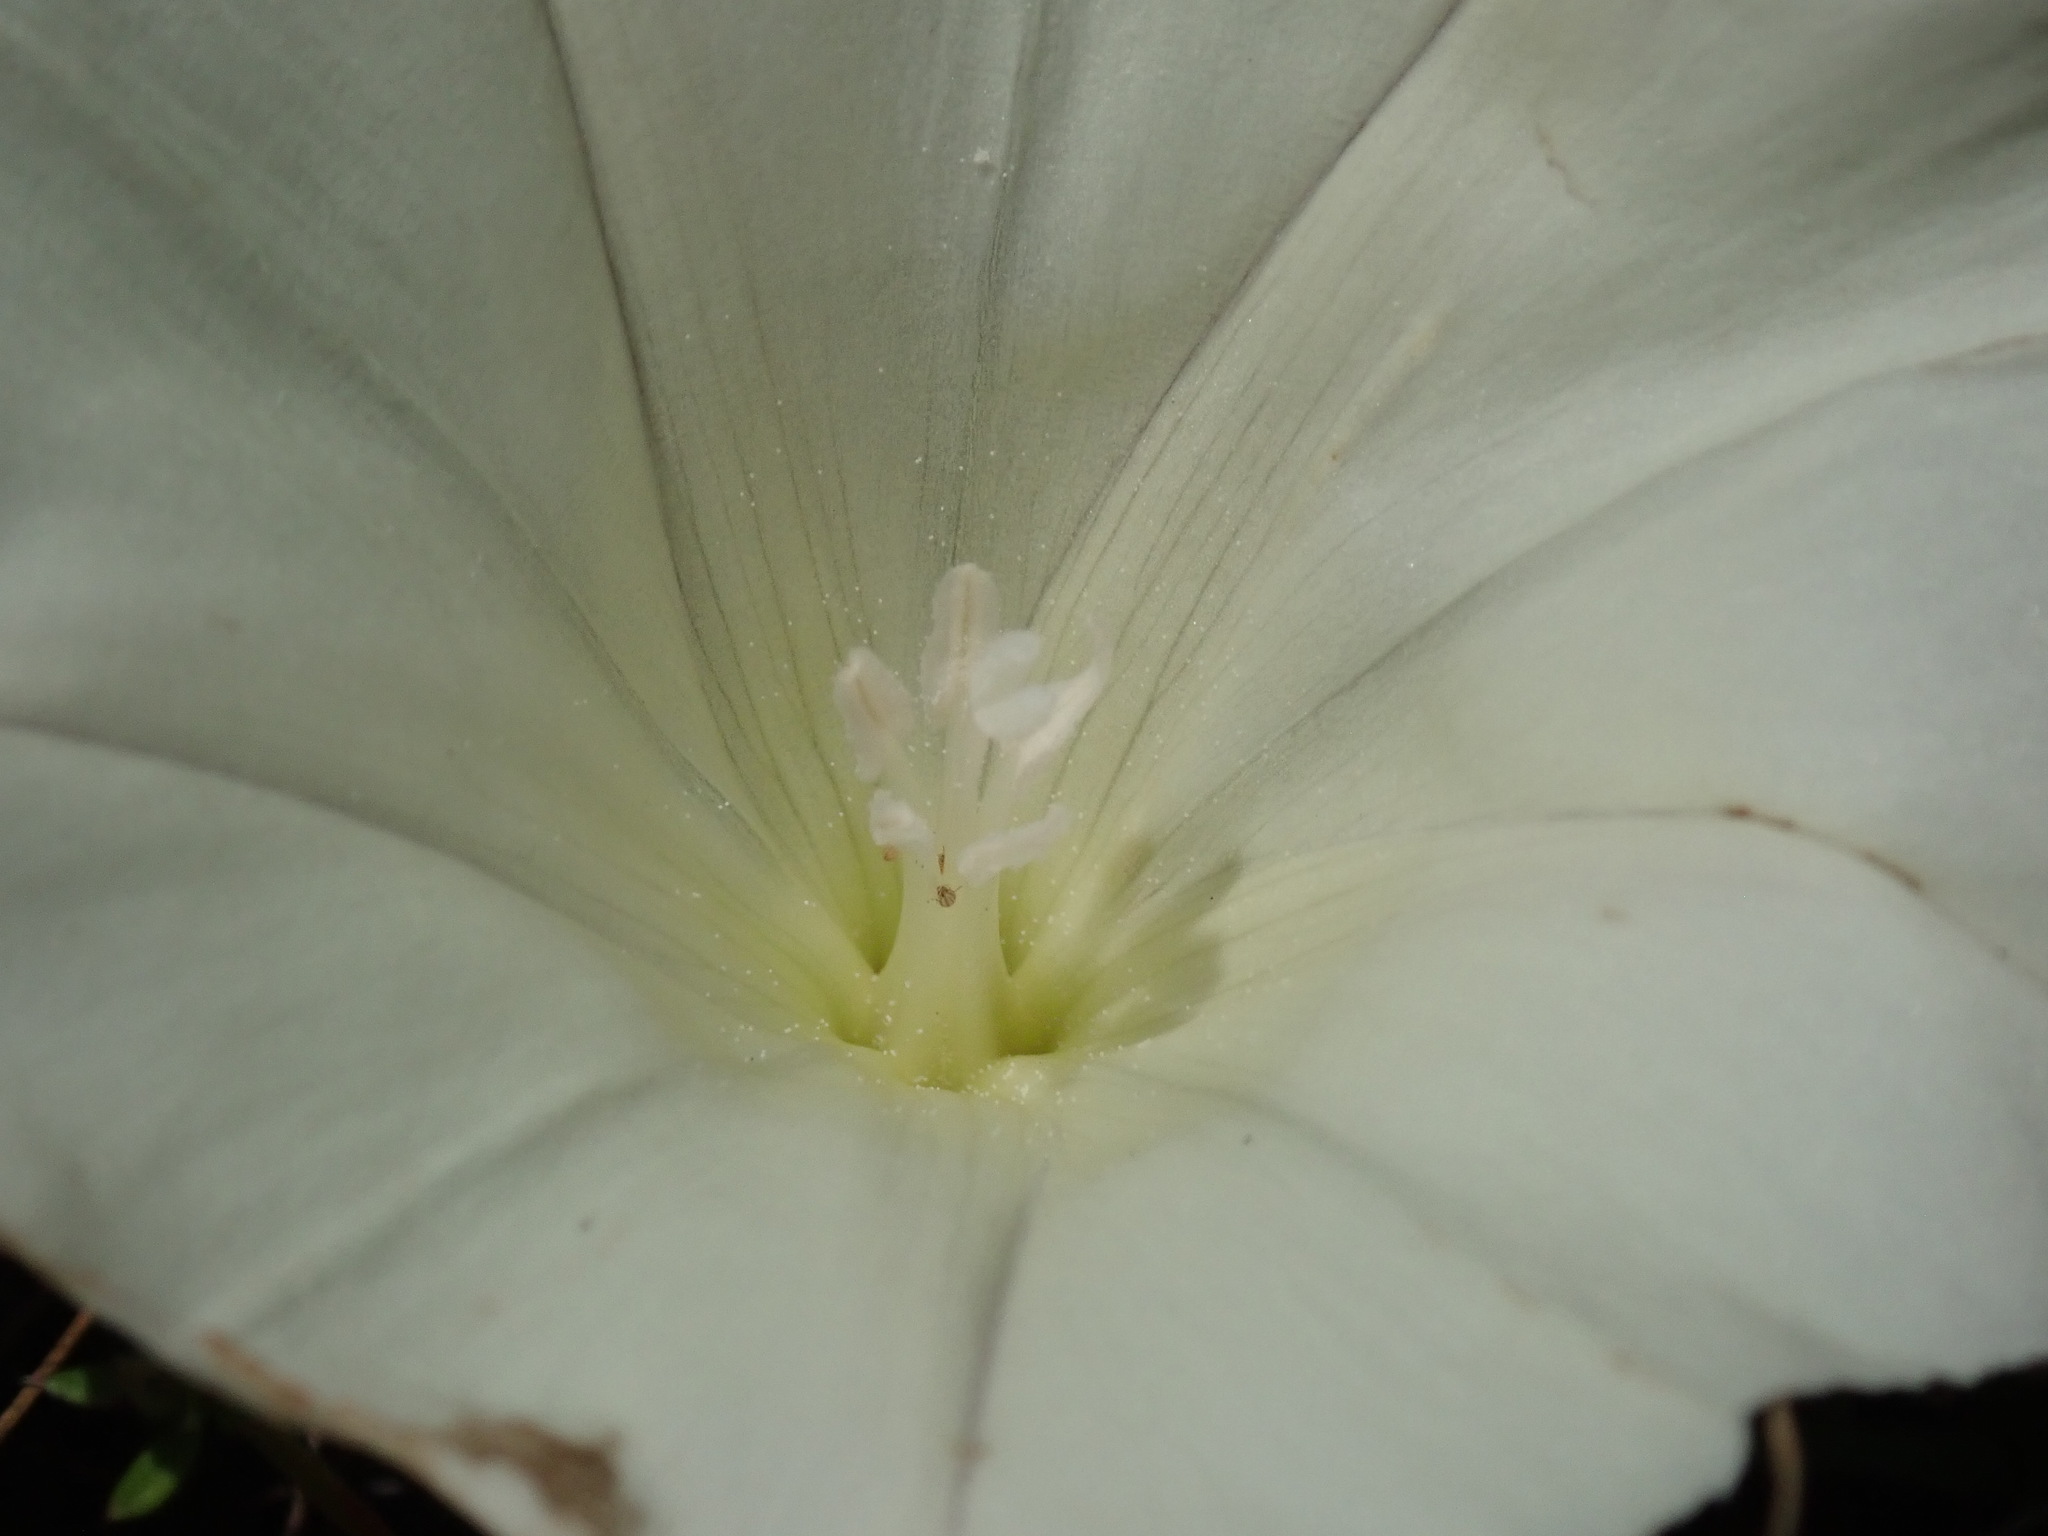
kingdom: Plantae
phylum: Tracheophyta
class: Magnoliopsida
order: Solanales
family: Convolvulaceae
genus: Calystegia
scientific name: Calystegia subacaulis
